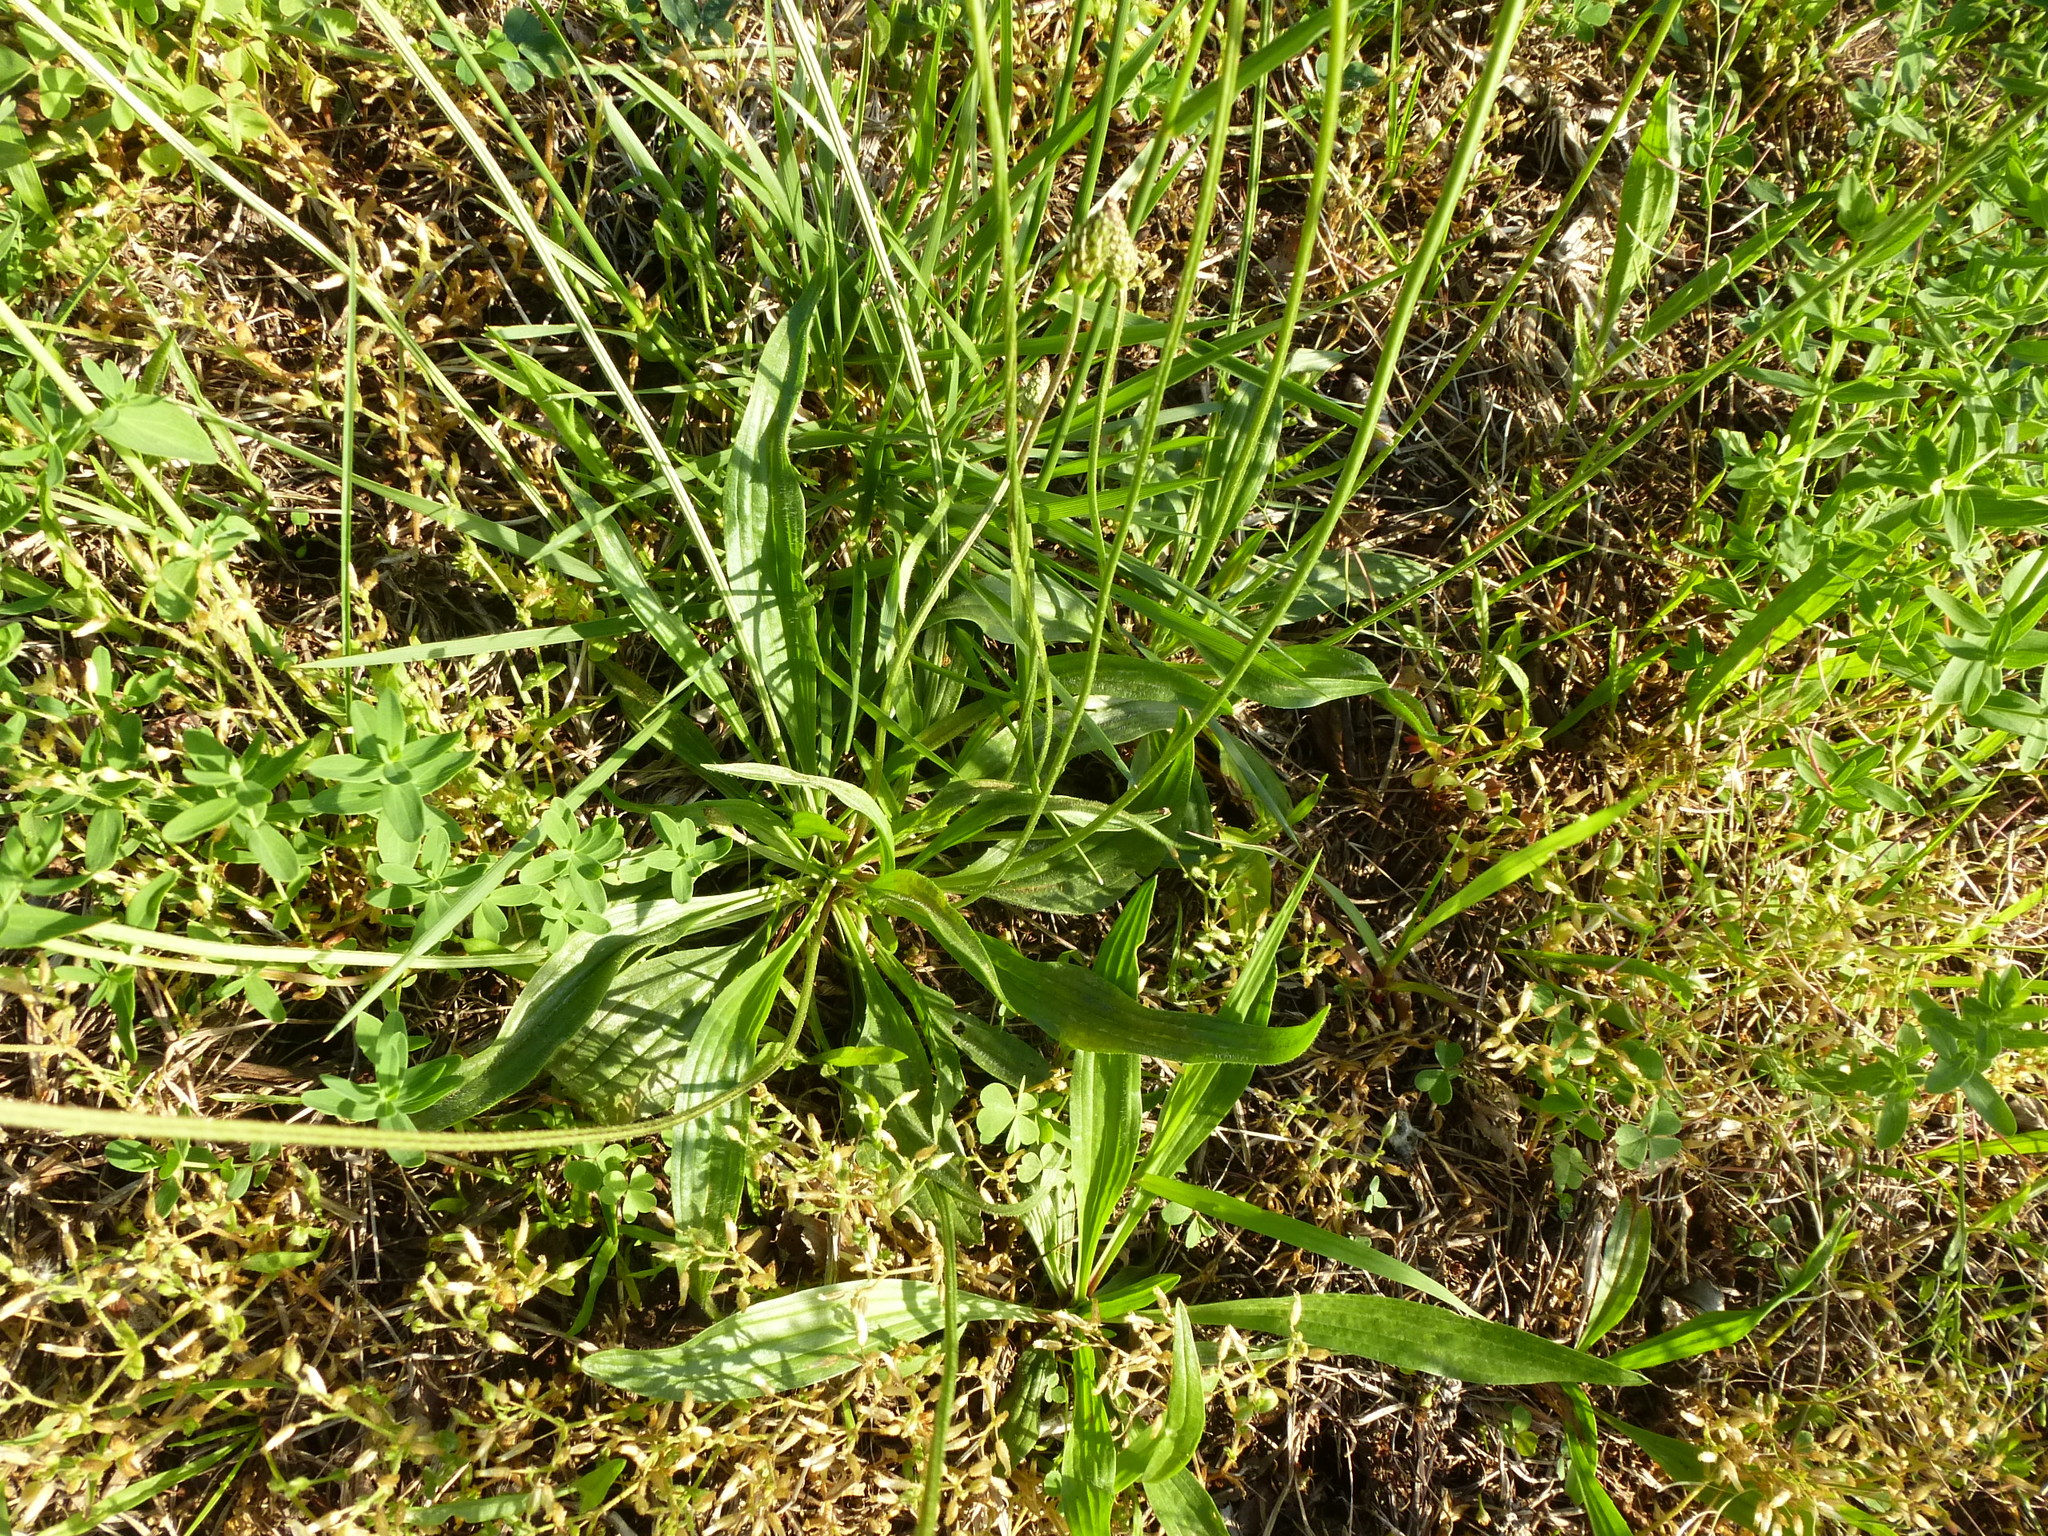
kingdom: Plantae
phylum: Tracheophyta
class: Magnoliopsida
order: Lamiales
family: Plantaginaceae
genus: Plantago
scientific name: Plantago lanceolata
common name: Ribwort plantain
